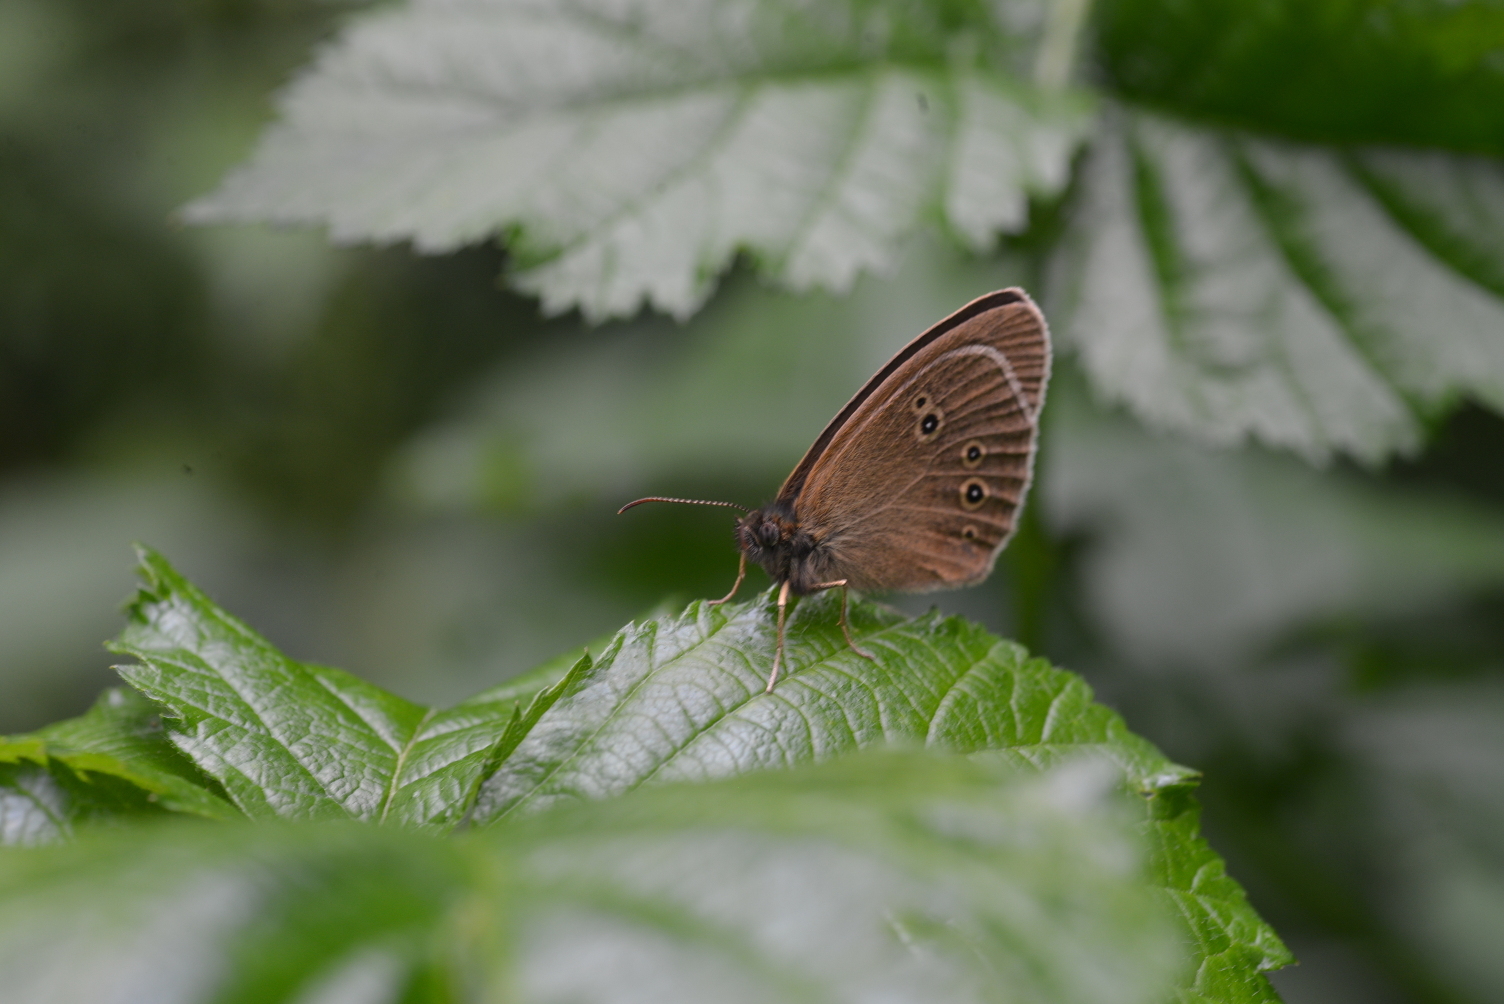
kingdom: Animalia
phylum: Arthropoda
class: Insecta
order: Lepidoptera
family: Nymphalidae
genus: Aphantopus
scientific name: Aphantopus hyperantus
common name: Ringlet
